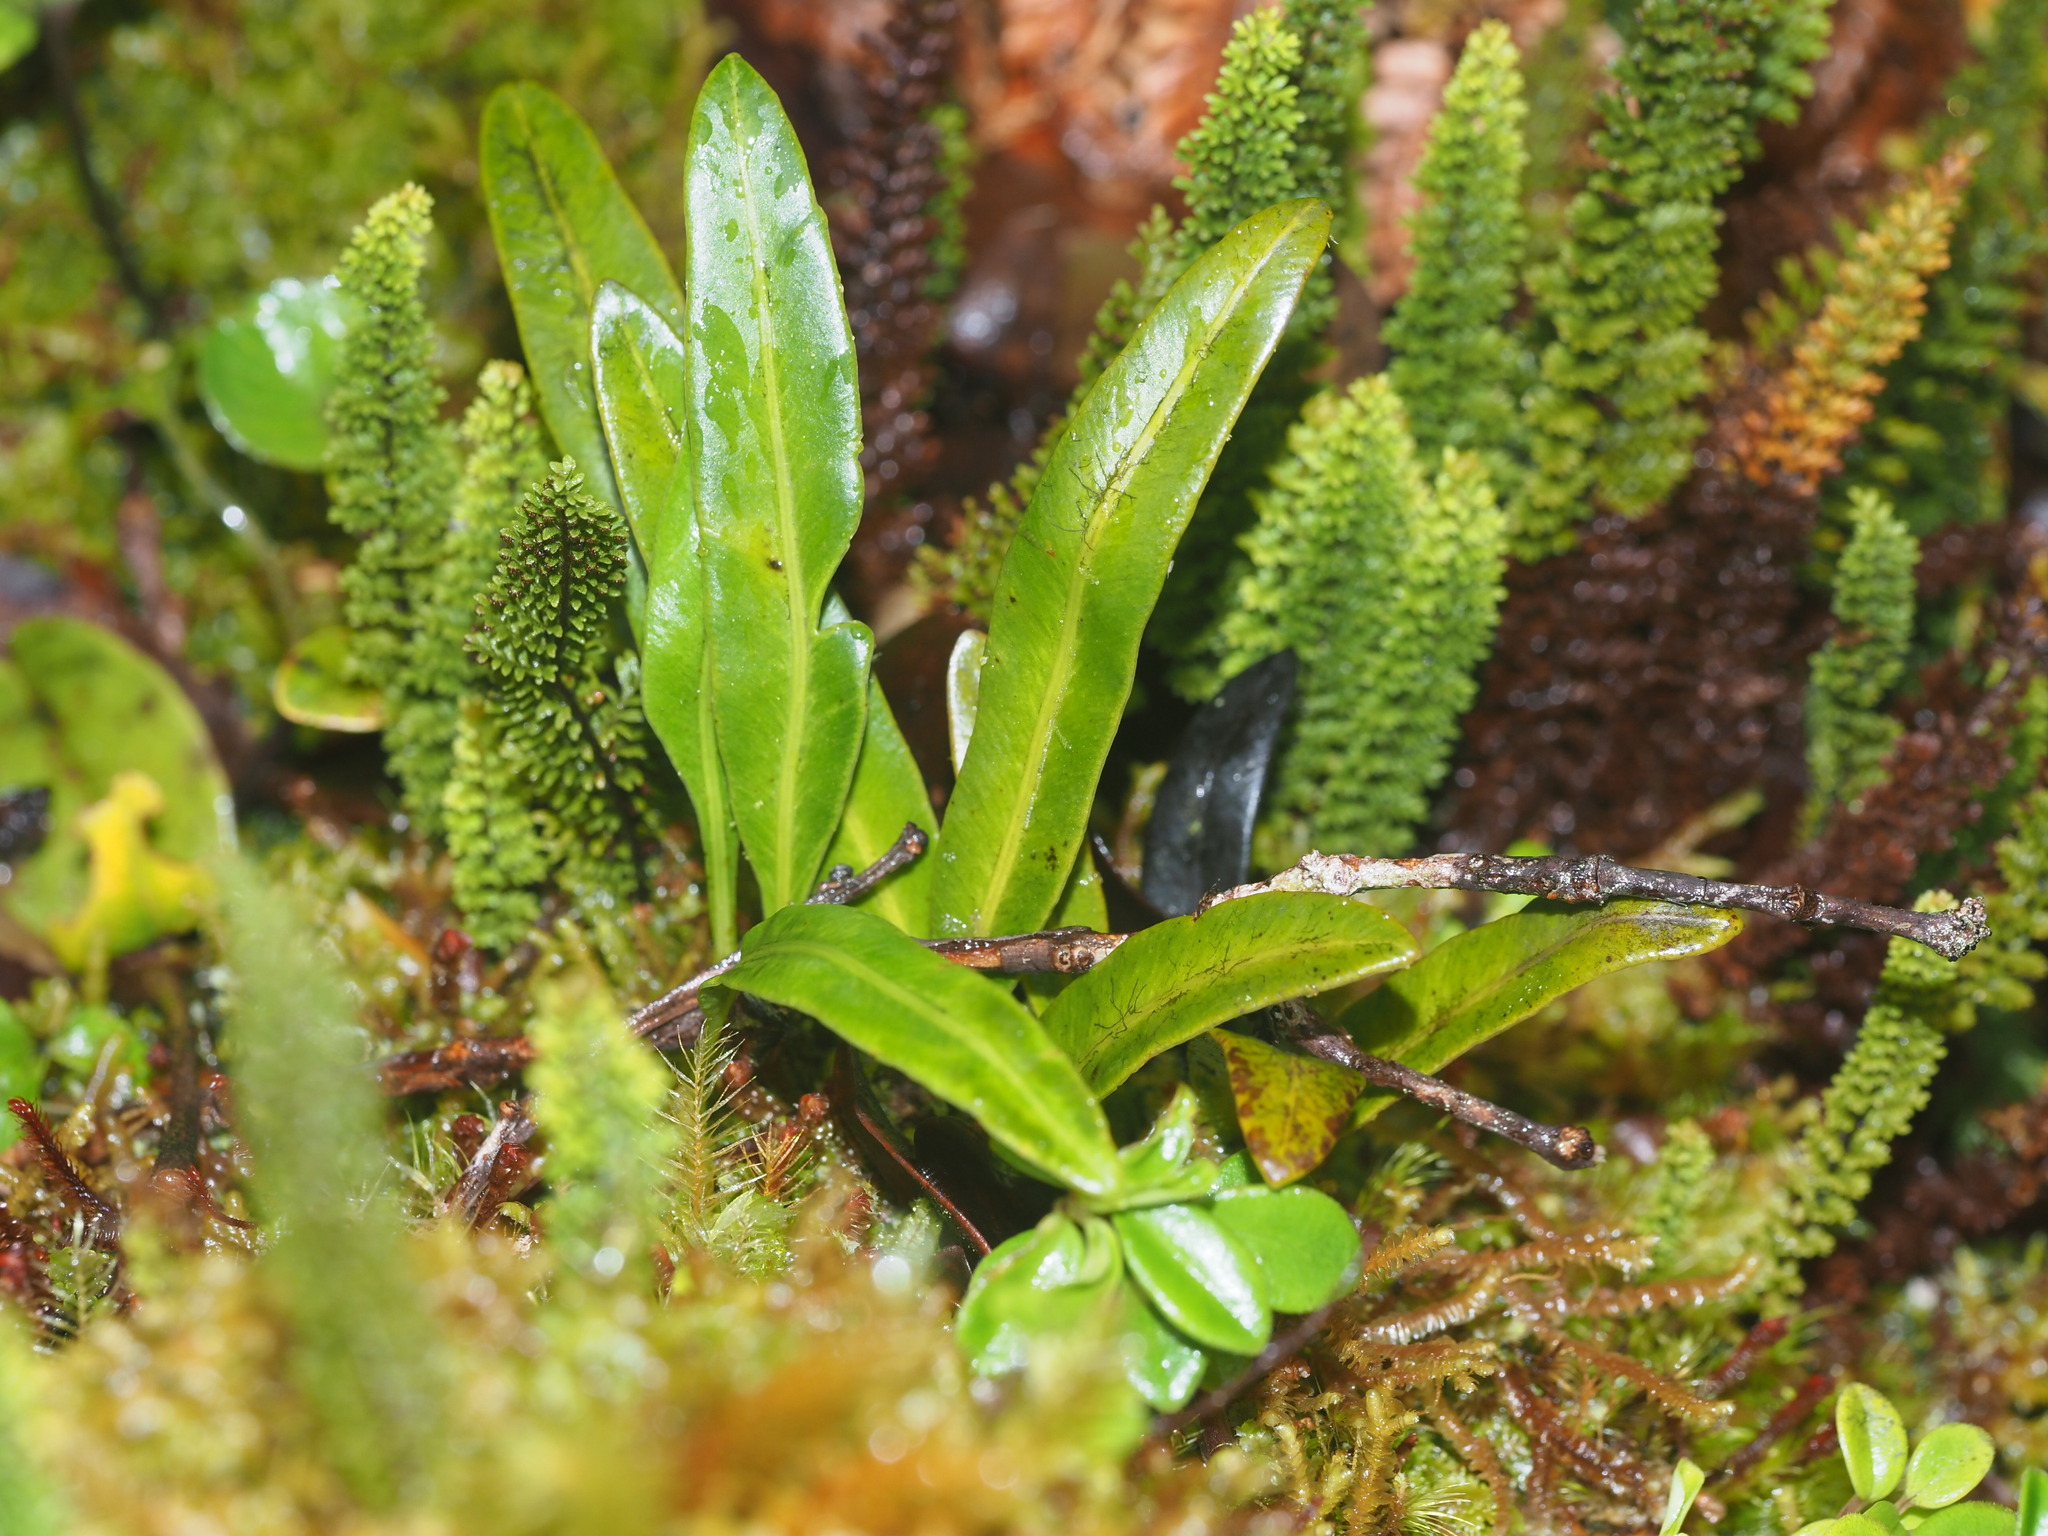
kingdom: Plantae
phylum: Tracheophyta
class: Polypodiopsida
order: Polypodiales
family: Dryopteridaceae
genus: Elaphoglossum
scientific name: Elaphoglossum wawrae
